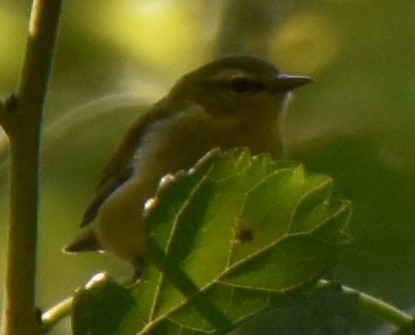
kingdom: Animalia
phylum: Chordata
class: Aves
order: Passeriformes
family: Parulidae
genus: Leiothlypis
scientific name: Leiothlypis peregrina
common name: Tennessee warbler
